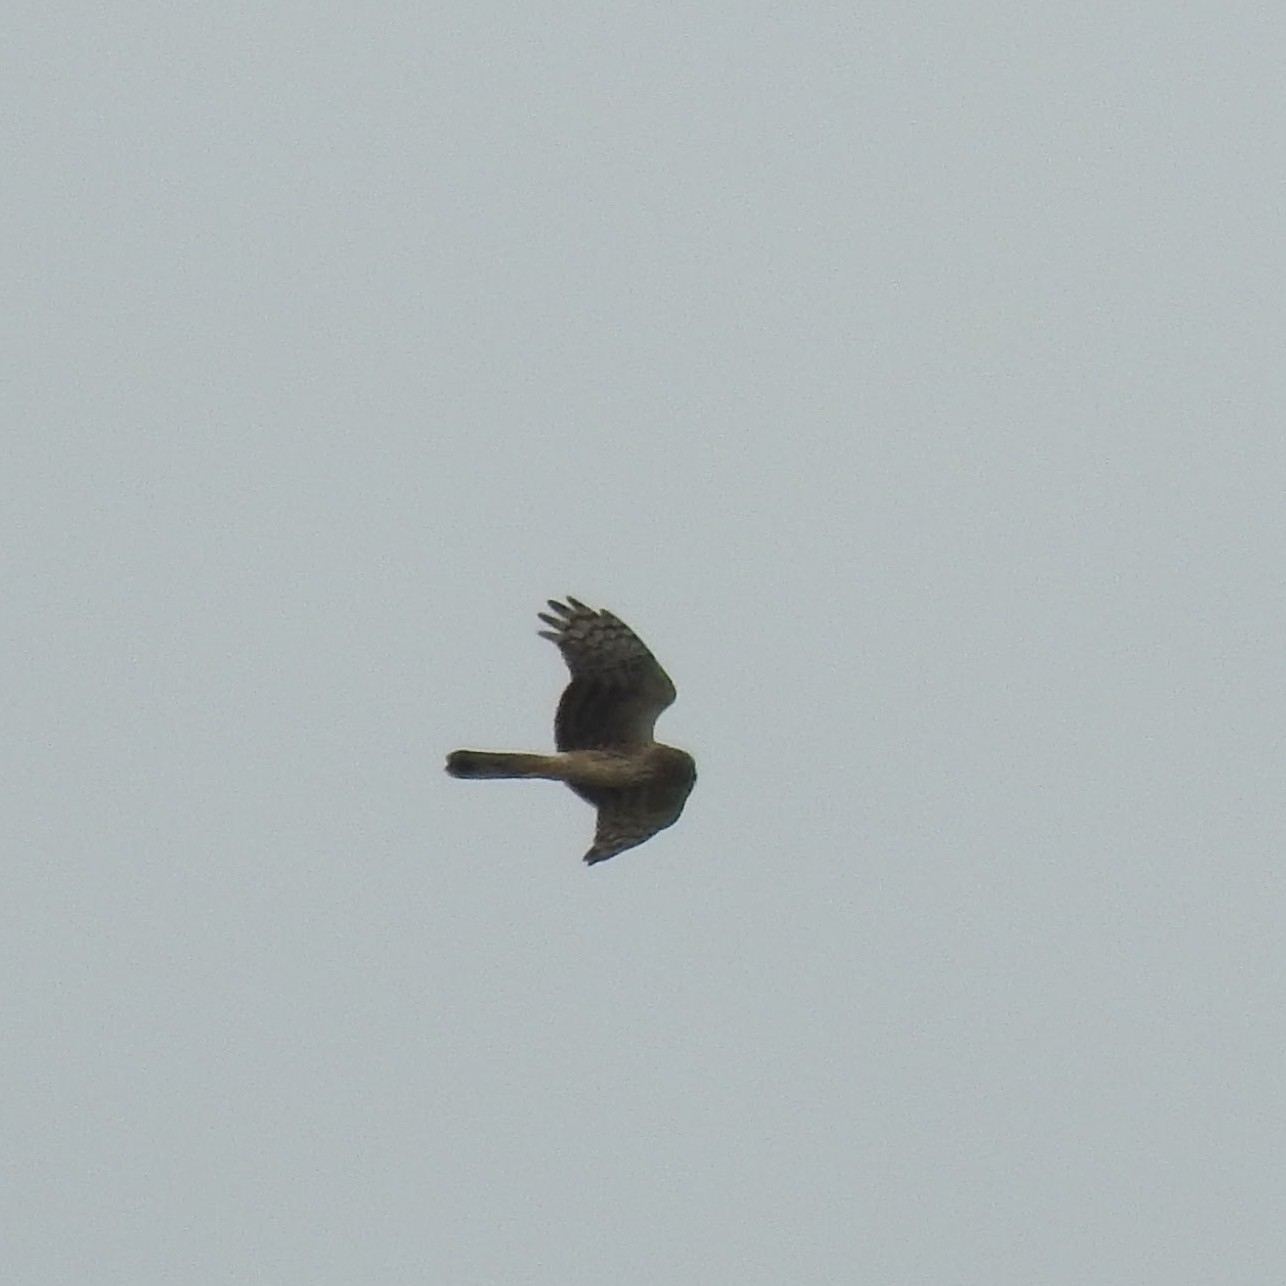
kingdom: Animalia
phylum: Chordata
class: Aves
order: Accipitriformes
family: Accipitridae
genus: Circus
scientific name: Circus cyaneus
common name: Hen harrier
